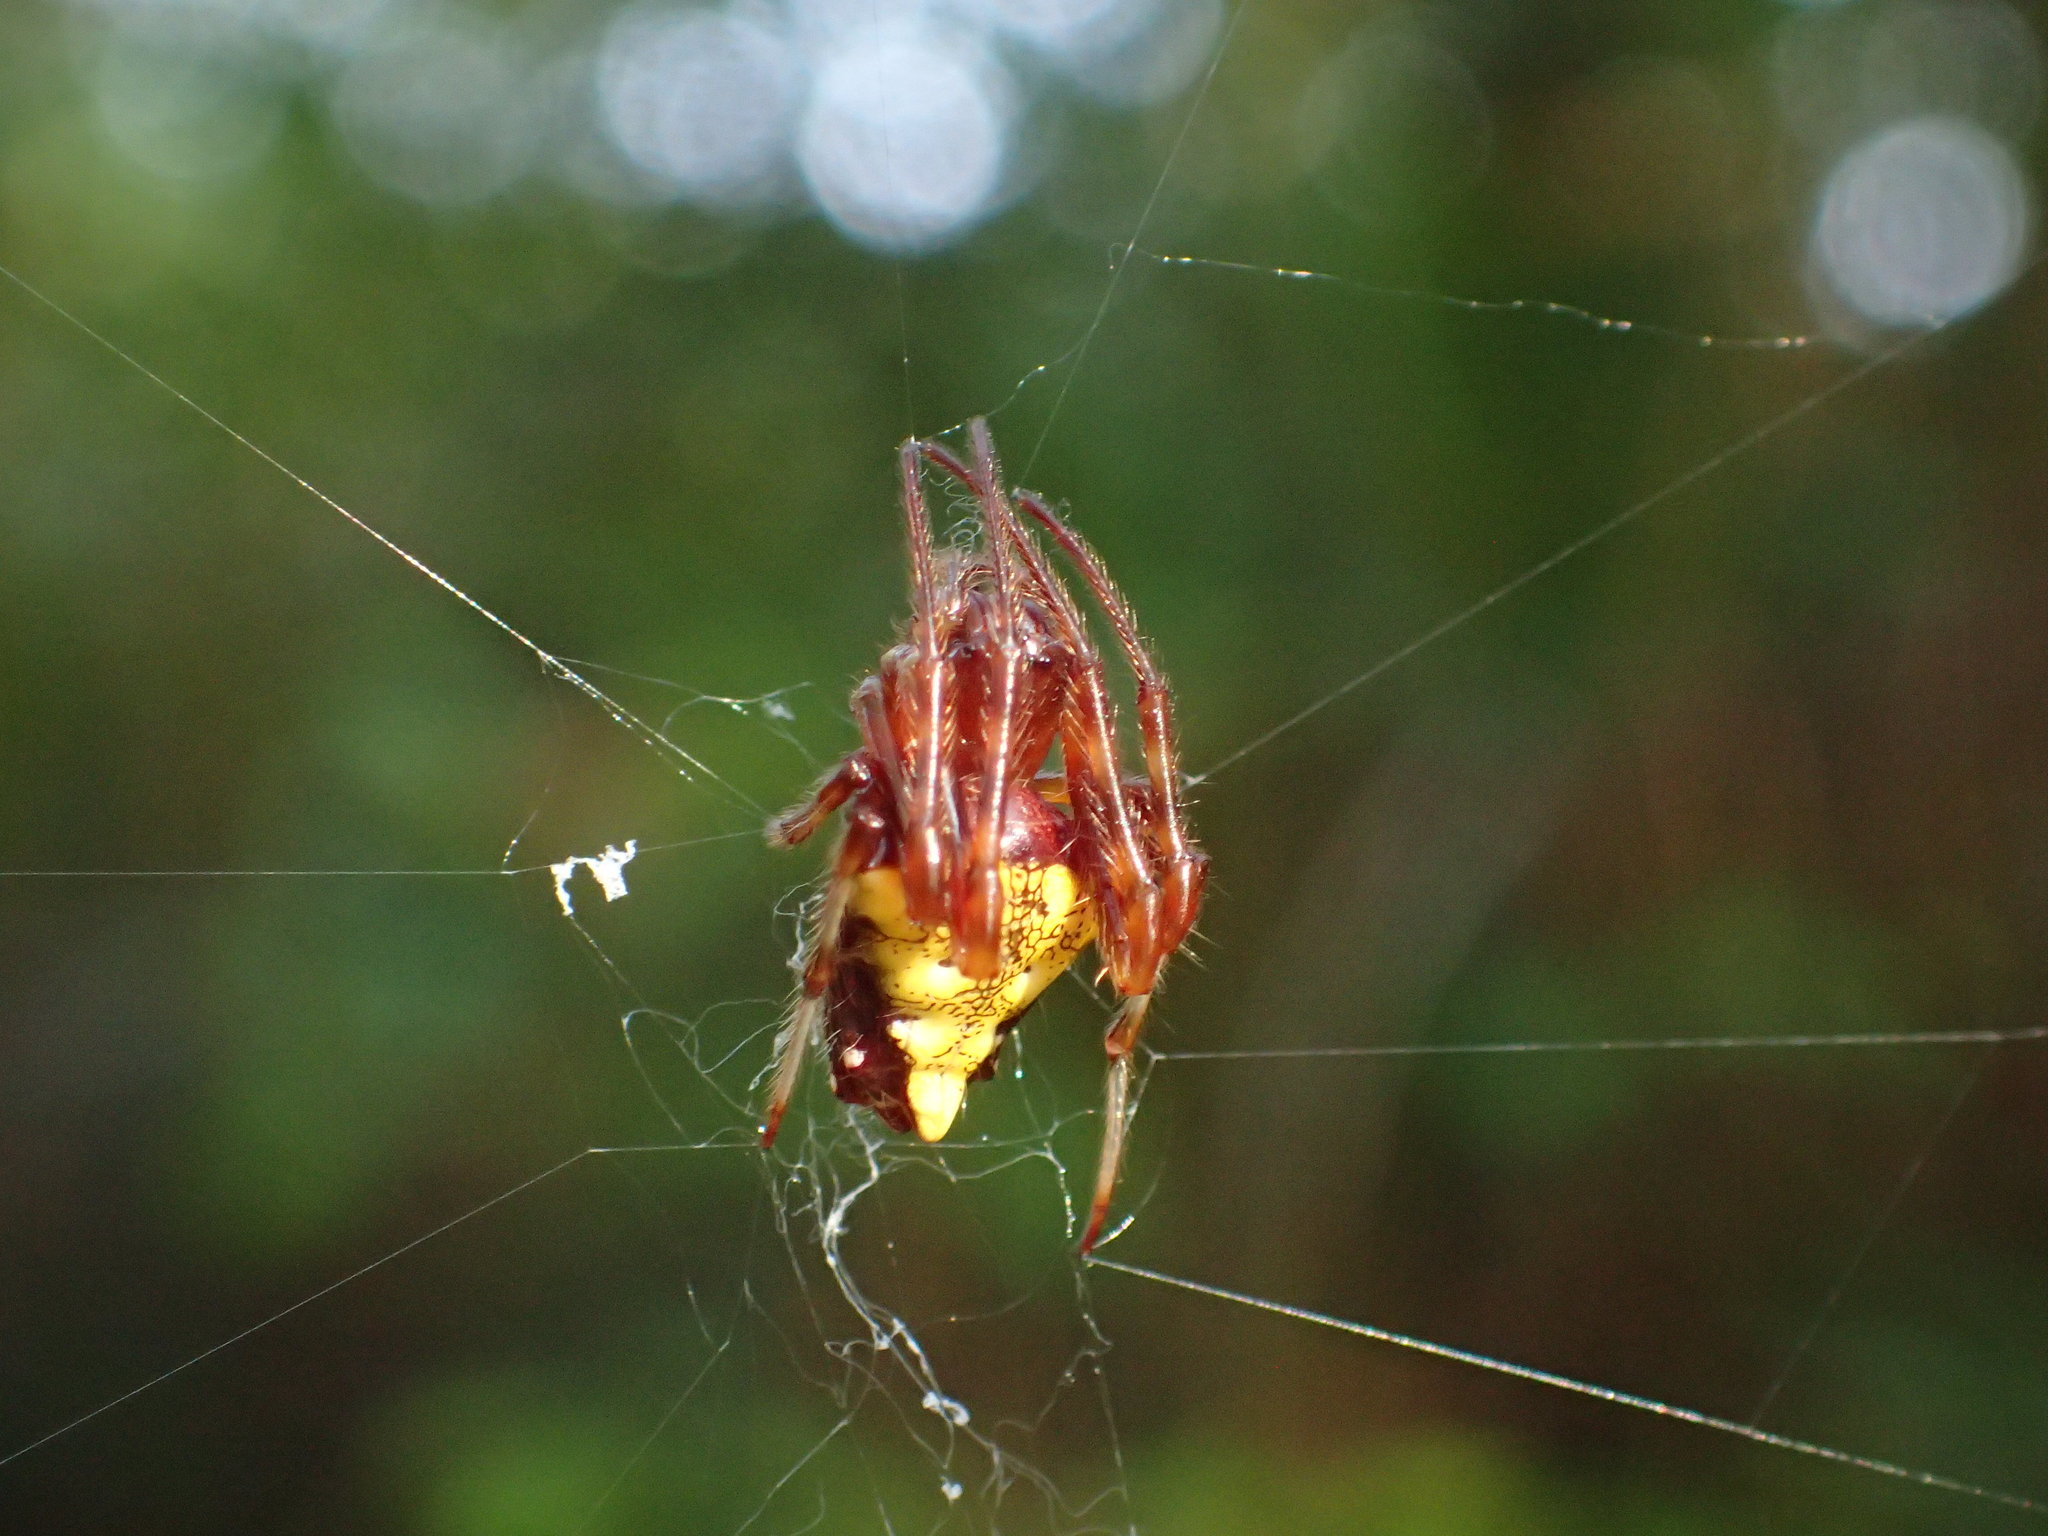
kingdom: Animalia
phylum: Arthropoda
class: Arachnida
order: Araneae
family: Araneidae
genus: Verrucosa
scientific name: Verrucosa arenata
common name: Orb weavers
